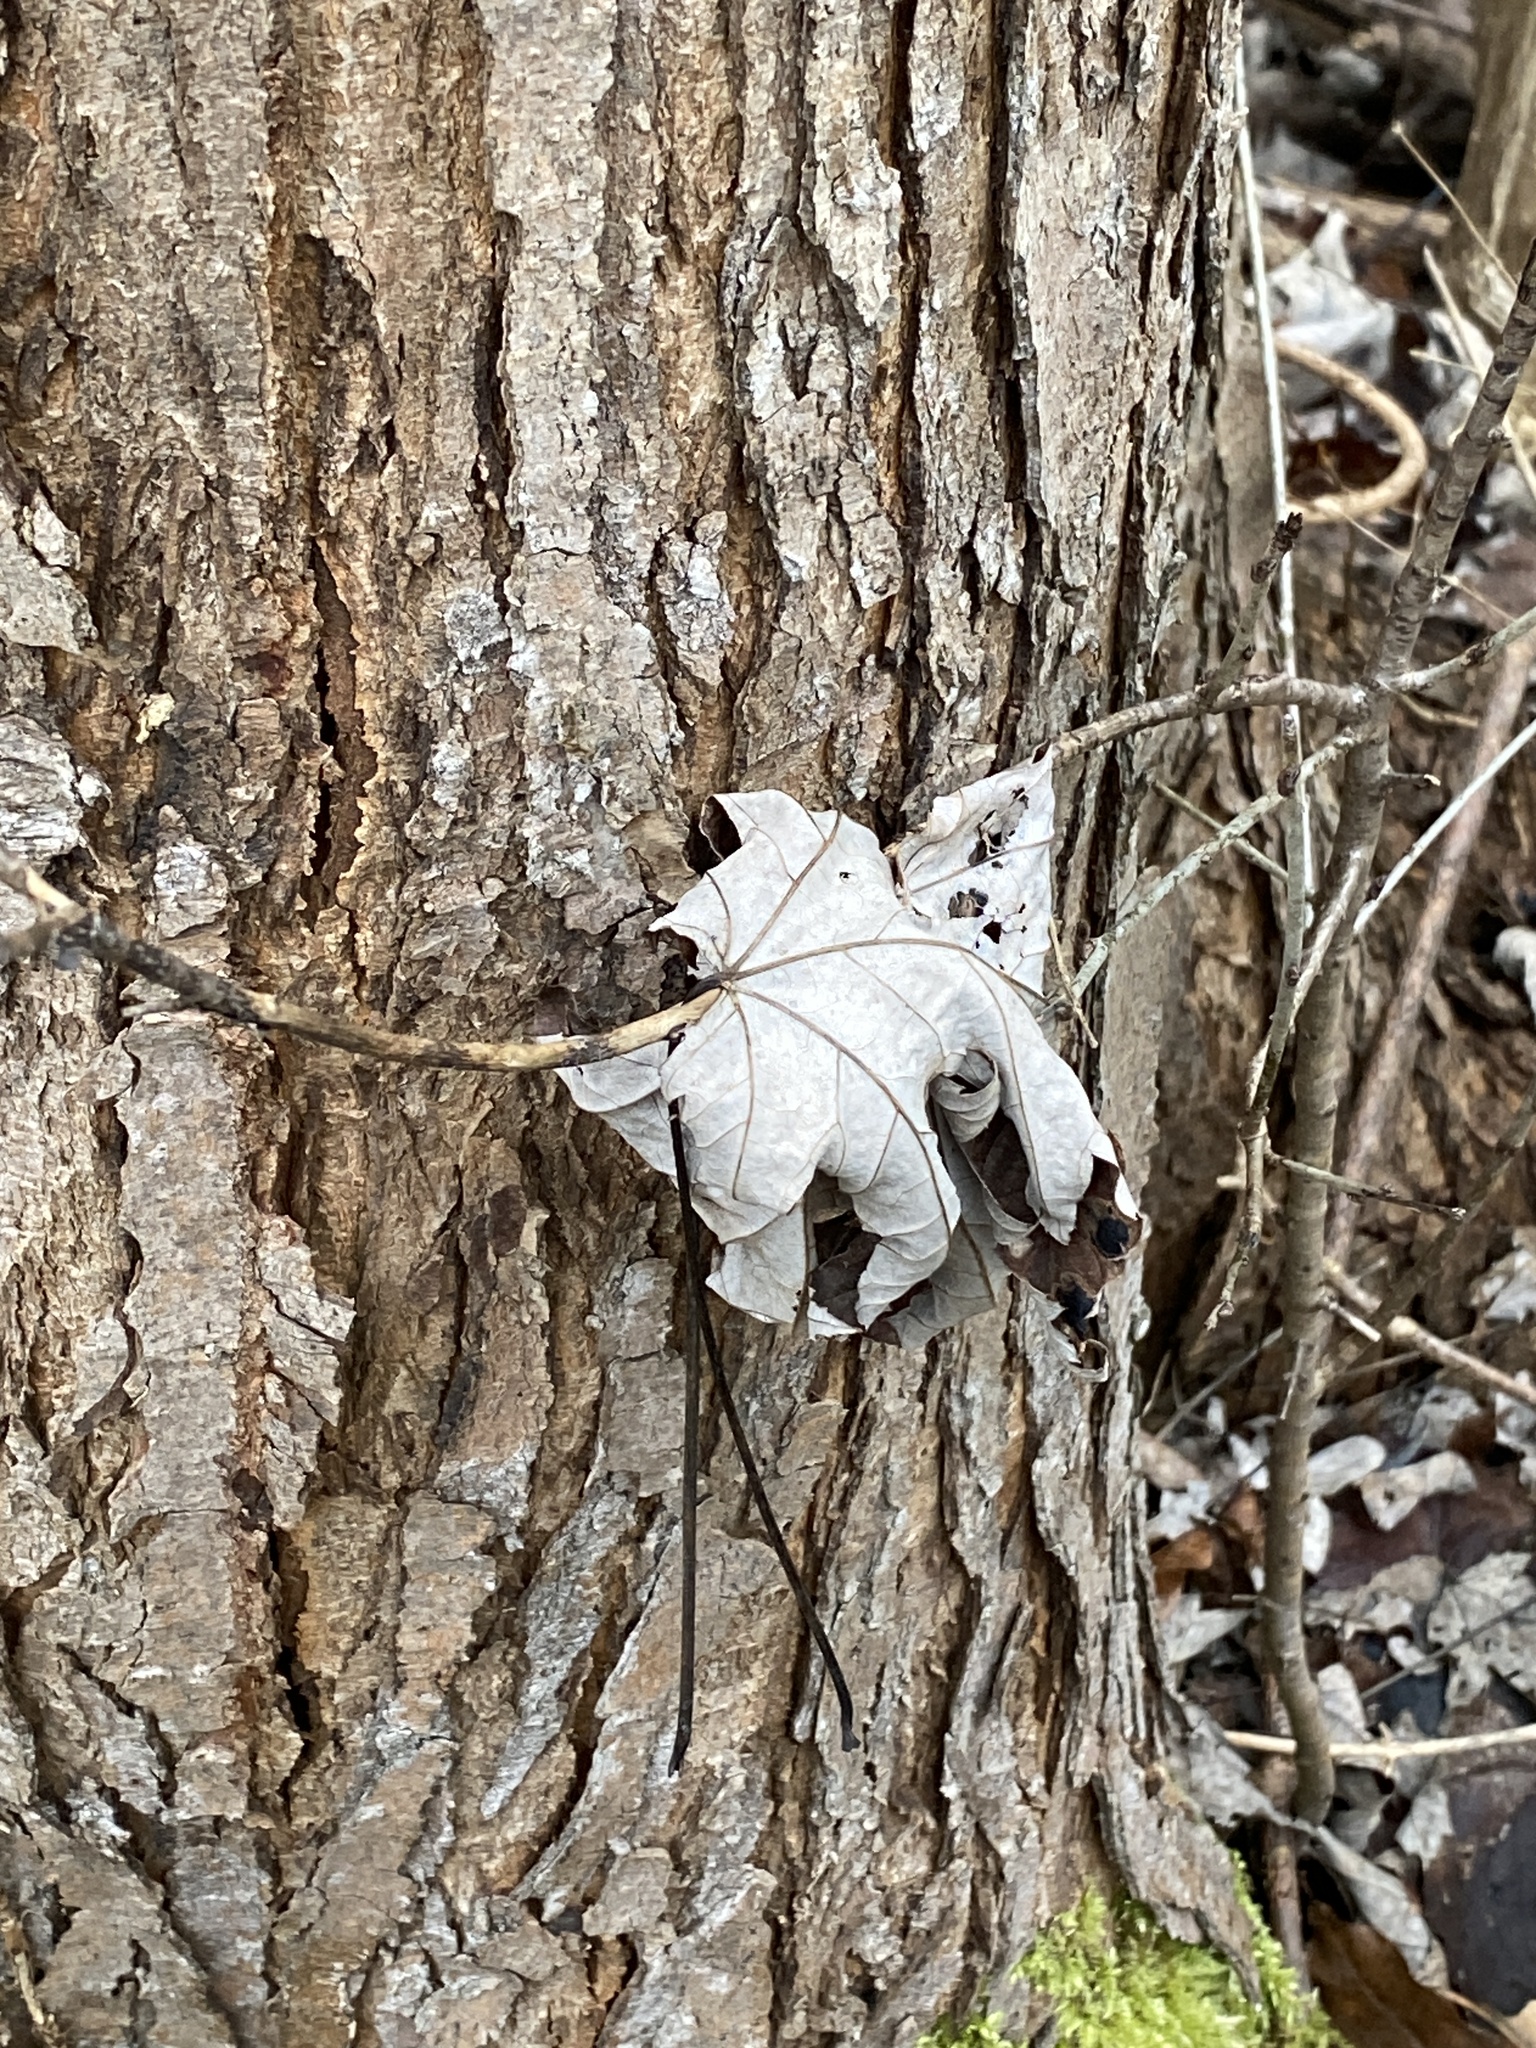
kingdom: Plantae
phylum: Tracheophyta
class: Magnoliopsida
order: Sapindales
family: Sapindaceae
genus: Acer
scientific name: Acer saccharinum
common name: Silver maple
